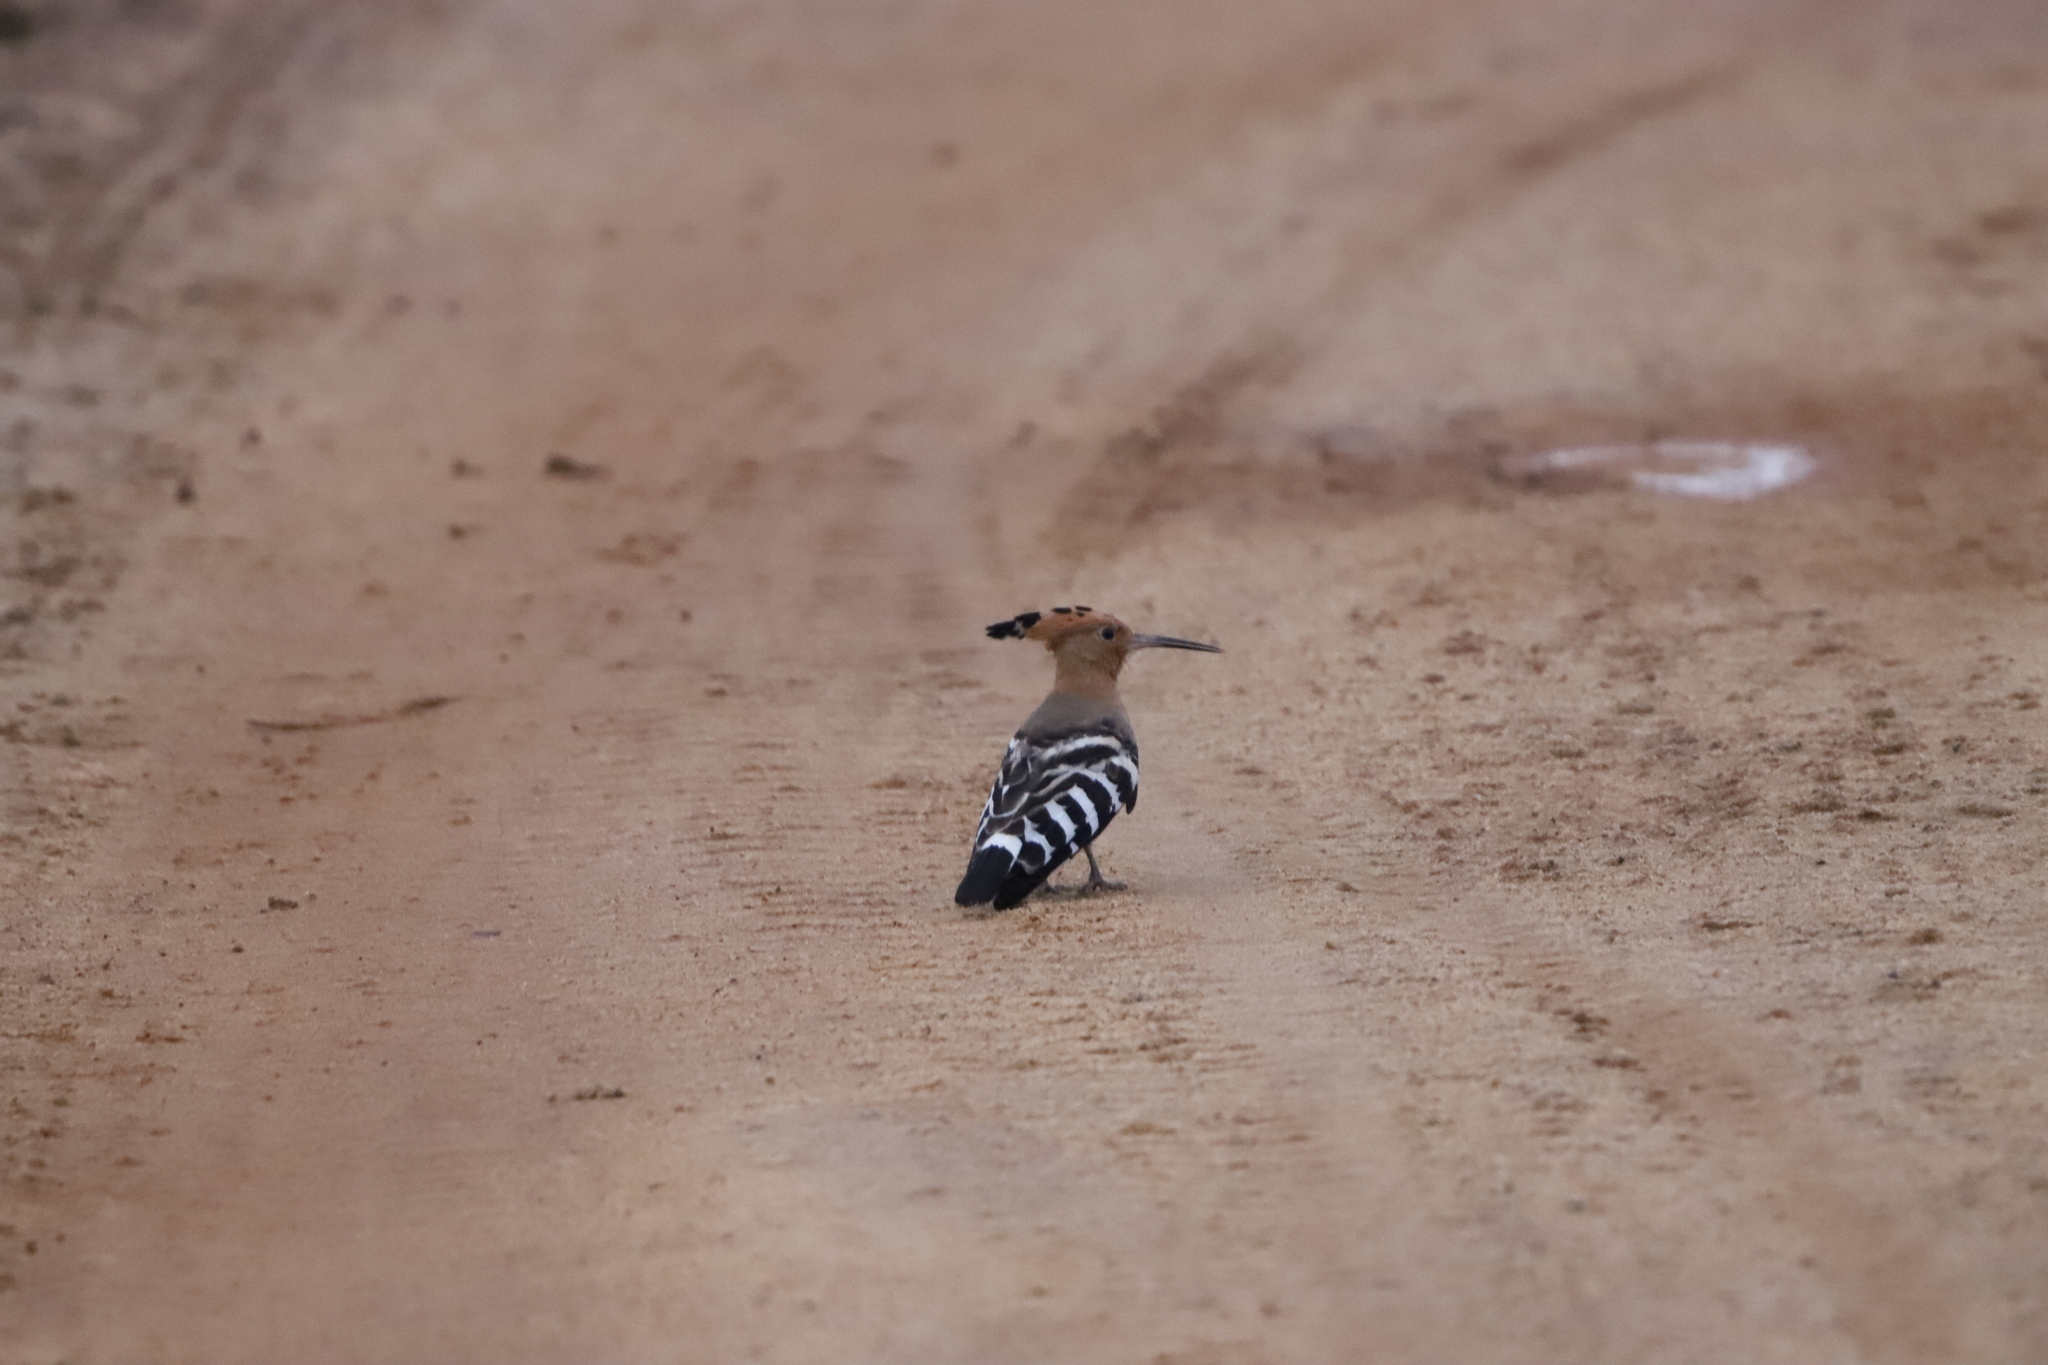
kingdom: Animalia
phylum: Chordata
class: Aves
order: Bucerotiformes
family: Upupidae
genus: Upupa
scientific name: Upupa epops
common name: Eurasian hoopoe
